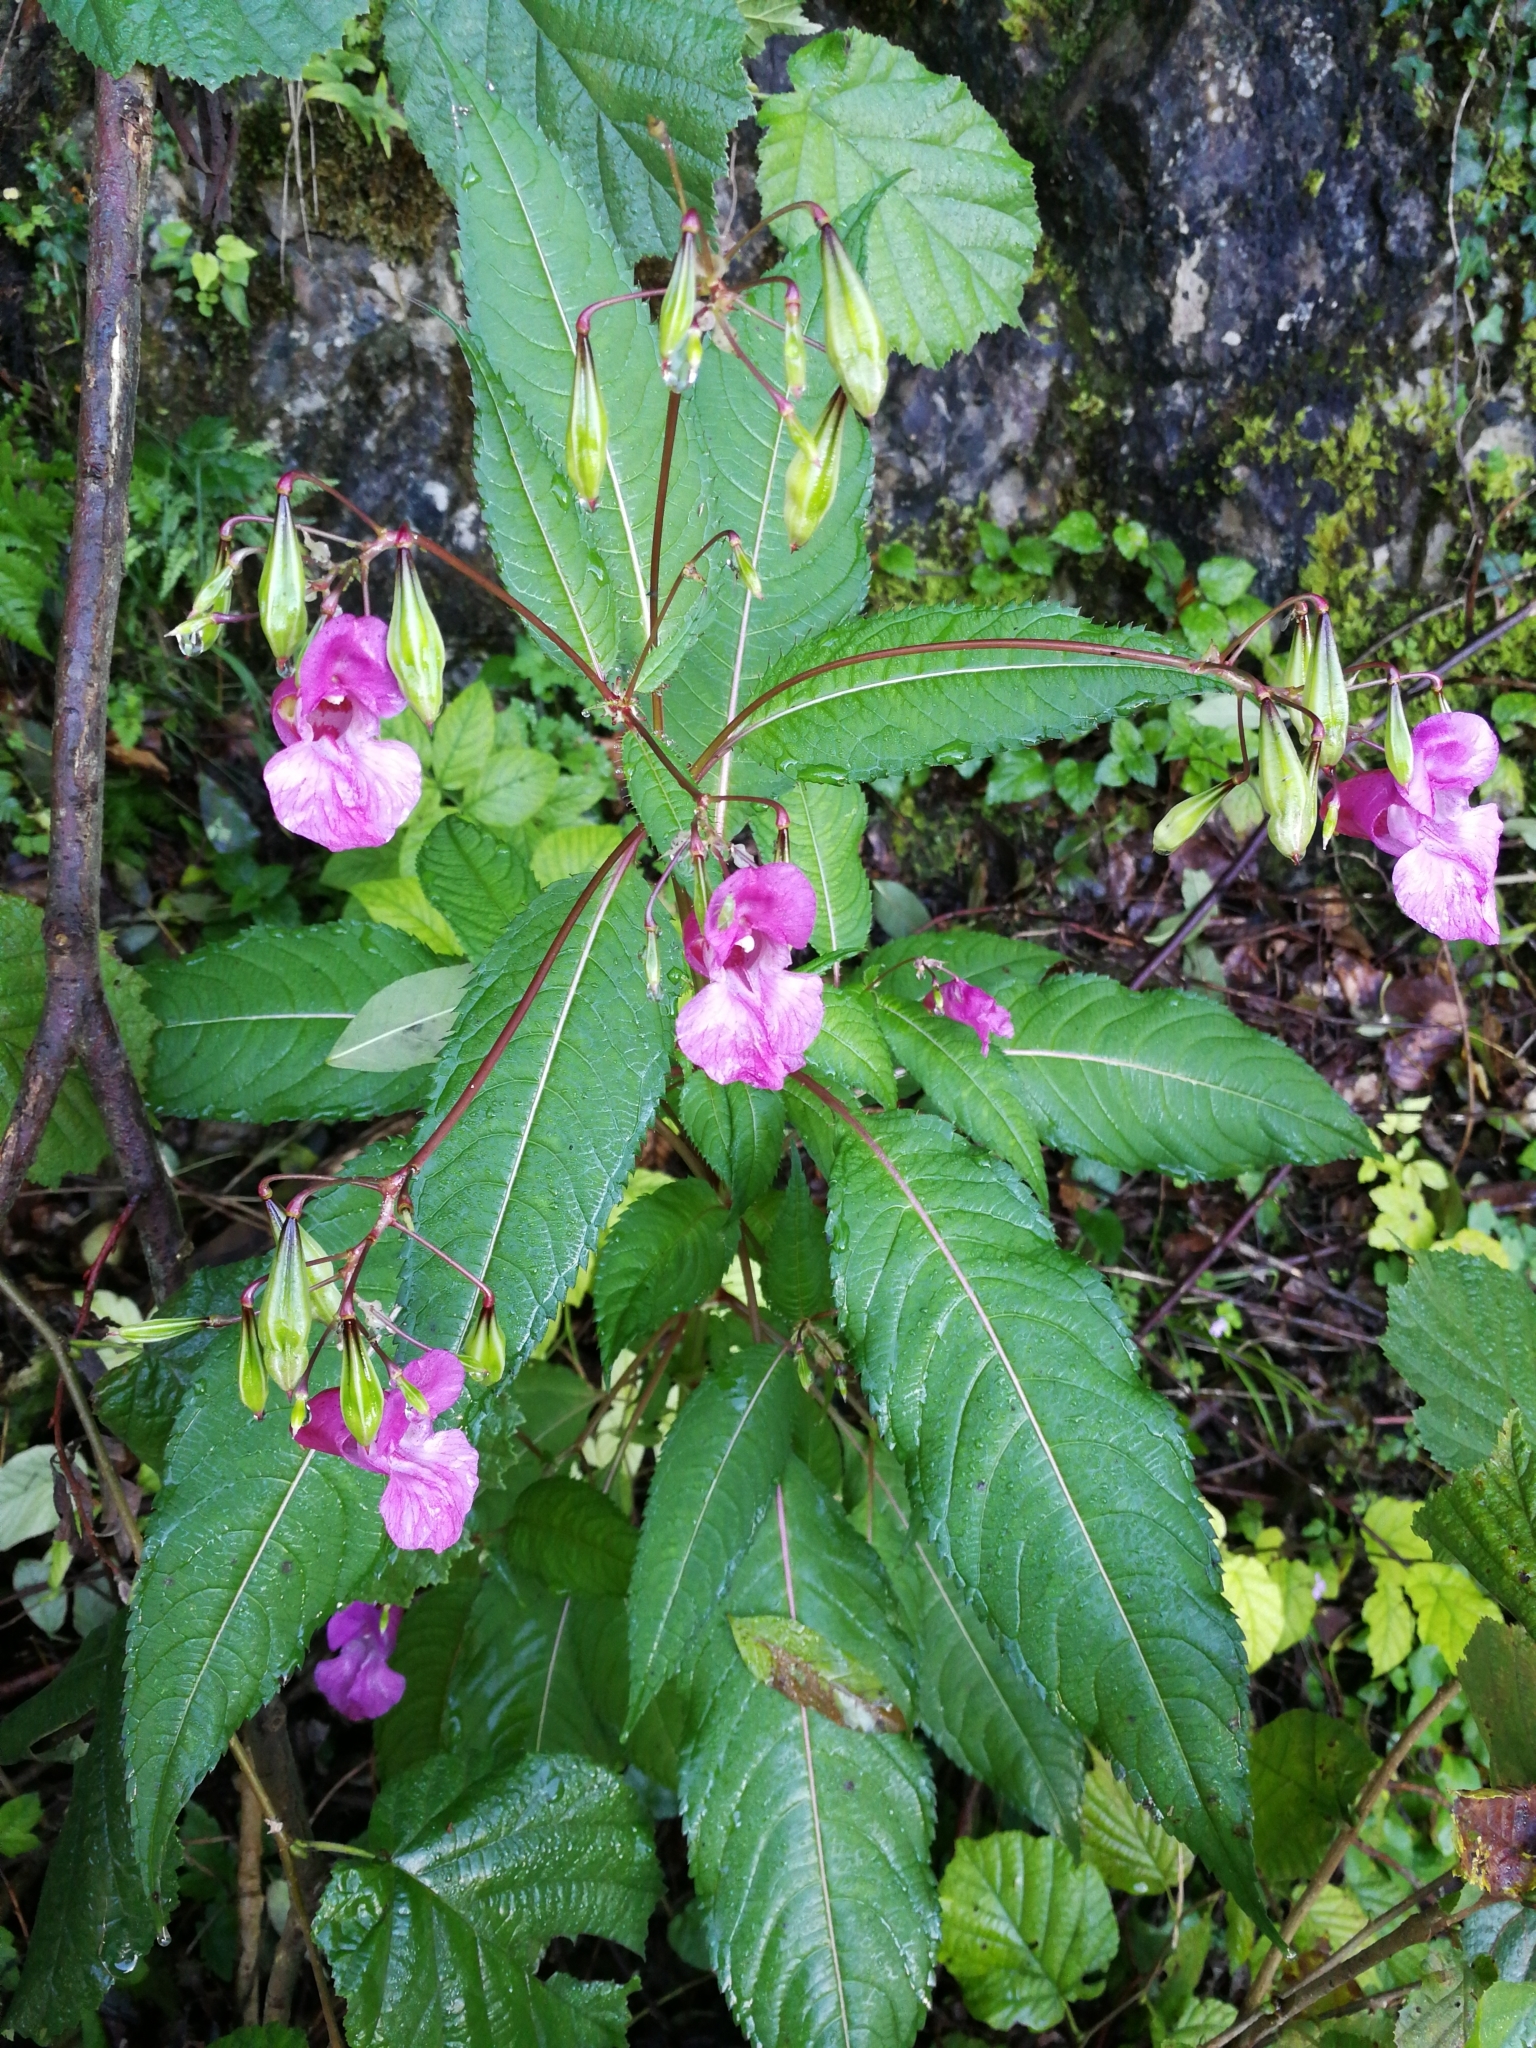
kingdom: Plantae
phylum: Tracheophyta
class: Magnoliopsida
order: Ericales
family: Balsaminaceae
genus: Impatiens
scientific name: Impatiens glandulifera
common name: Himalayan balsam
